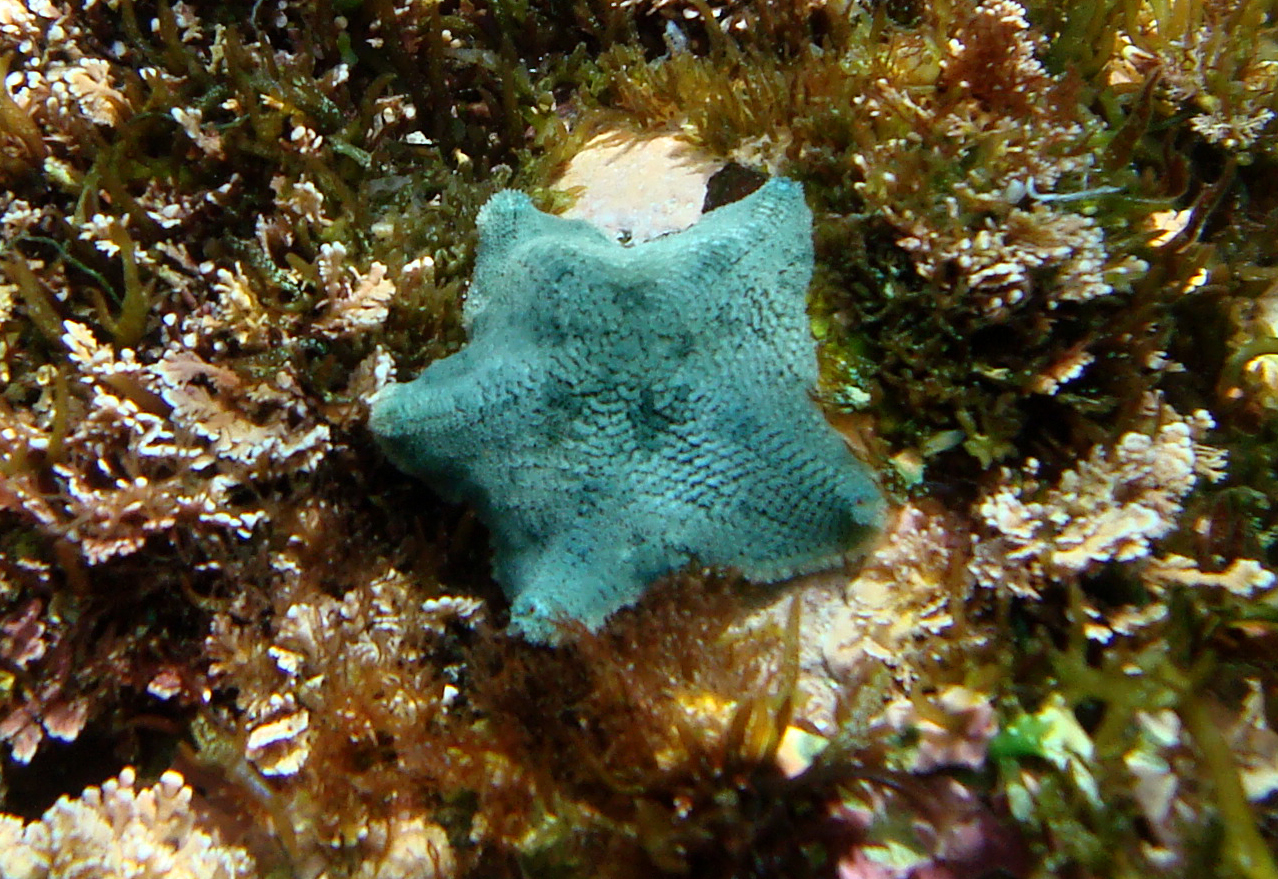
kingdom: Animalia
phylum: Echinodermata
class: Asteroidea
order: Valvatida
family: Asterinidae
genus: Parvulastra
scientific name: Parvulastra calcarata
